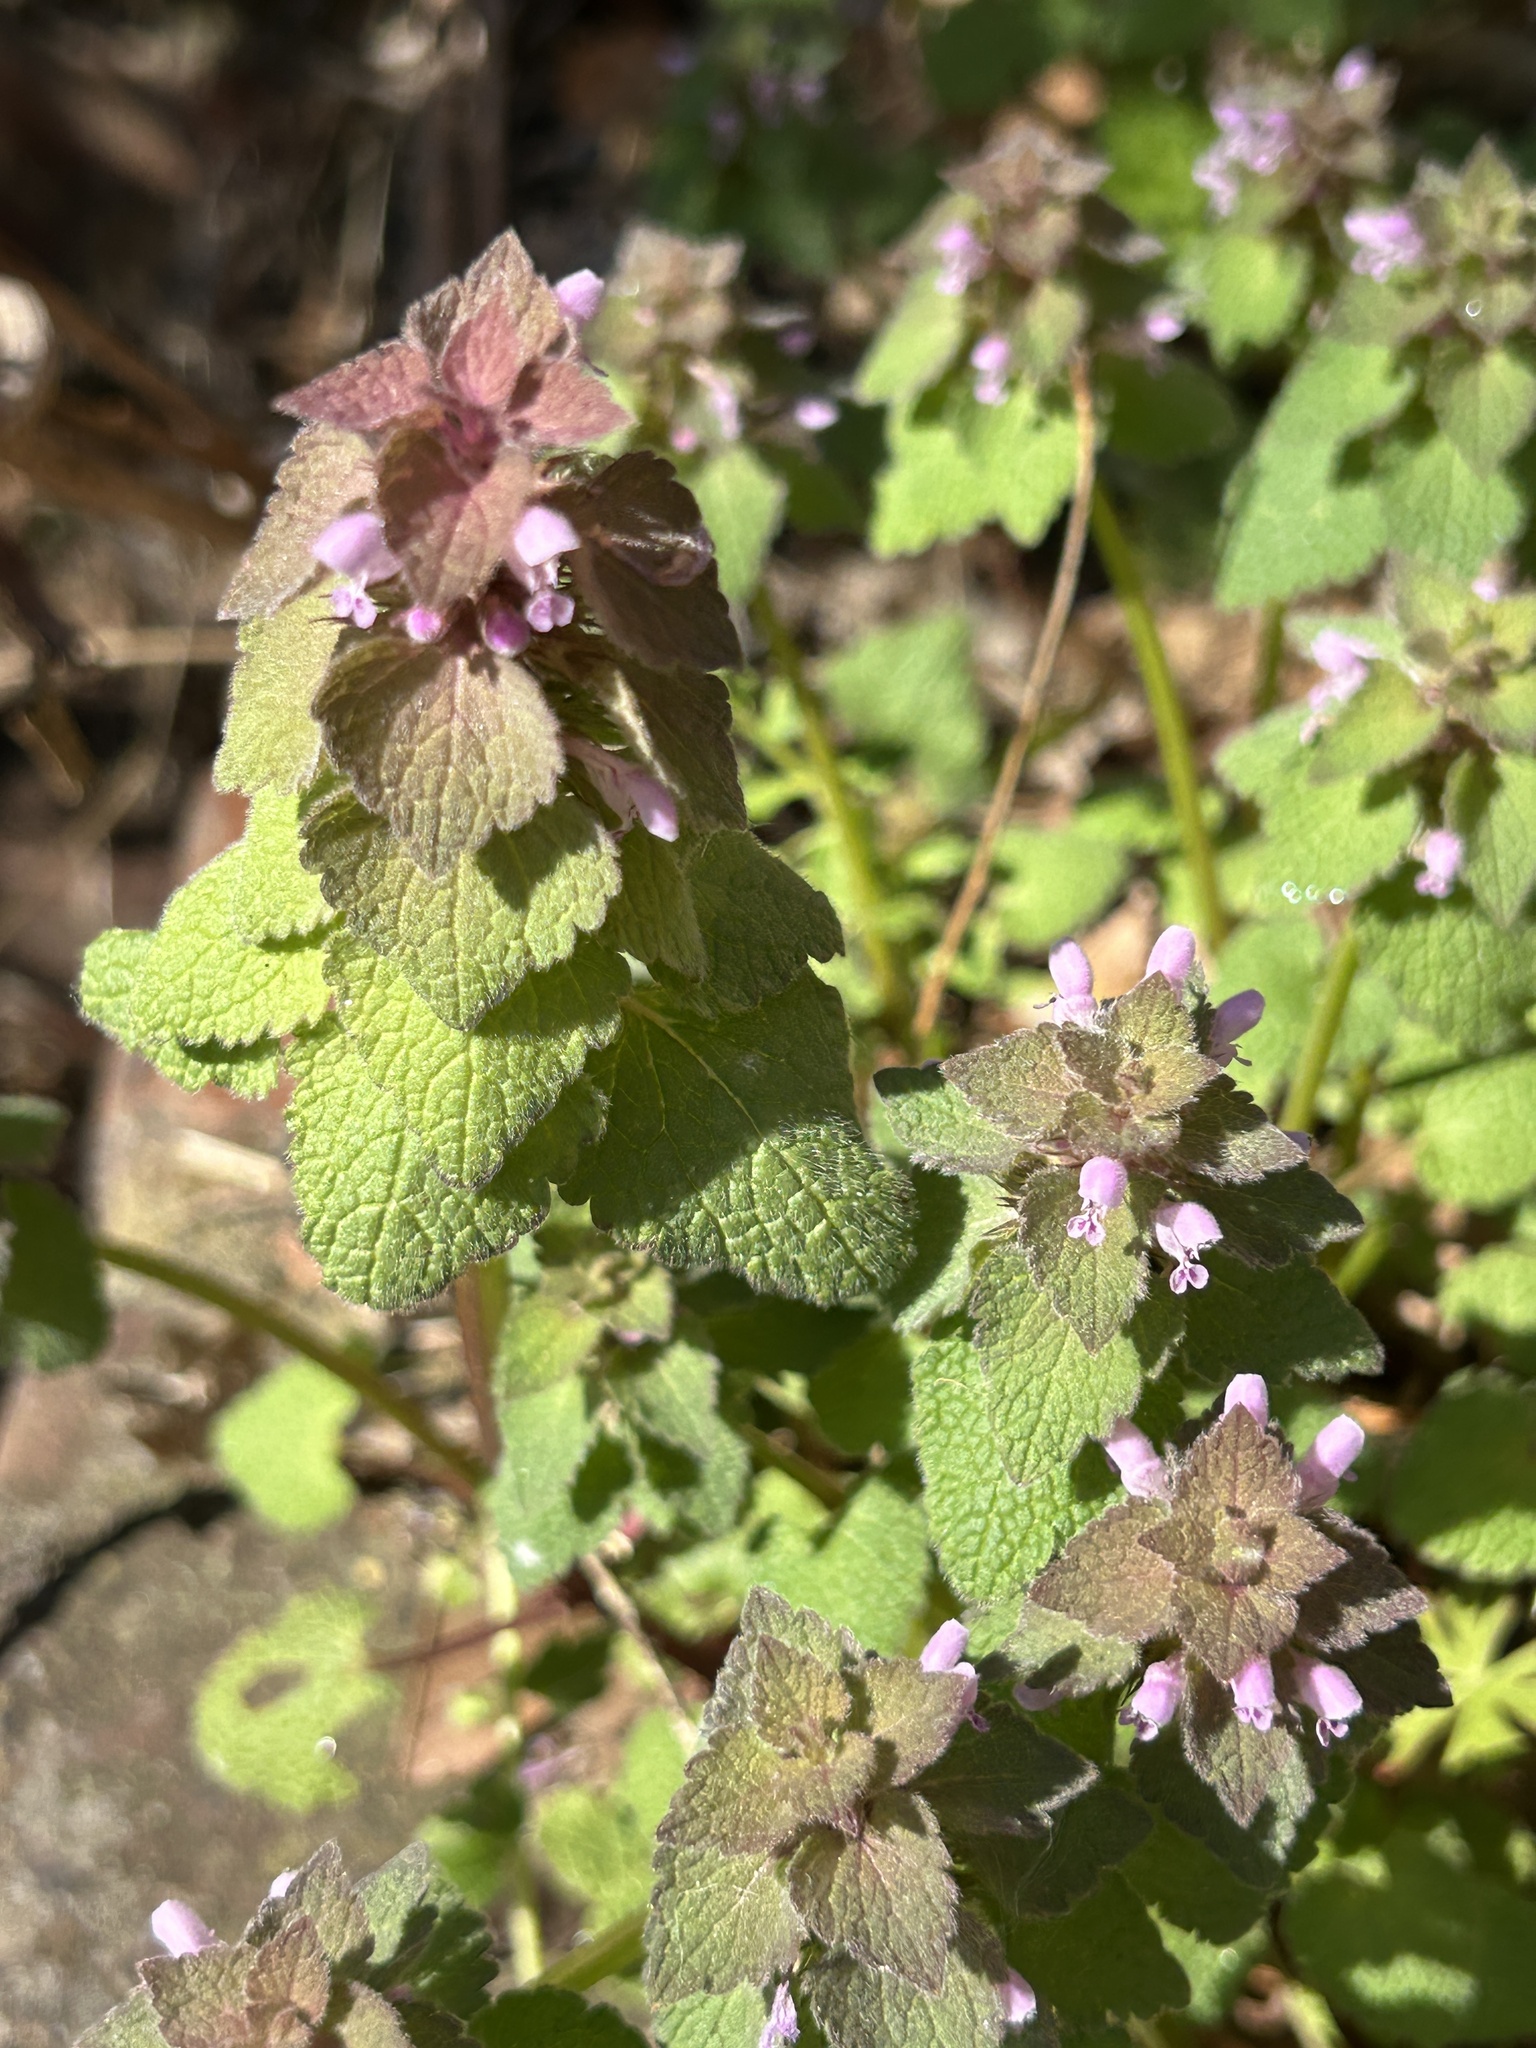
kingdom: Plantae
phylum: Tracheophyta
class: Magnoliopsida
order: Lamiales
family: Lamiaceae
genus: Lamium
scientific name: Lamium purpureum
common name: Red dead-nettle
